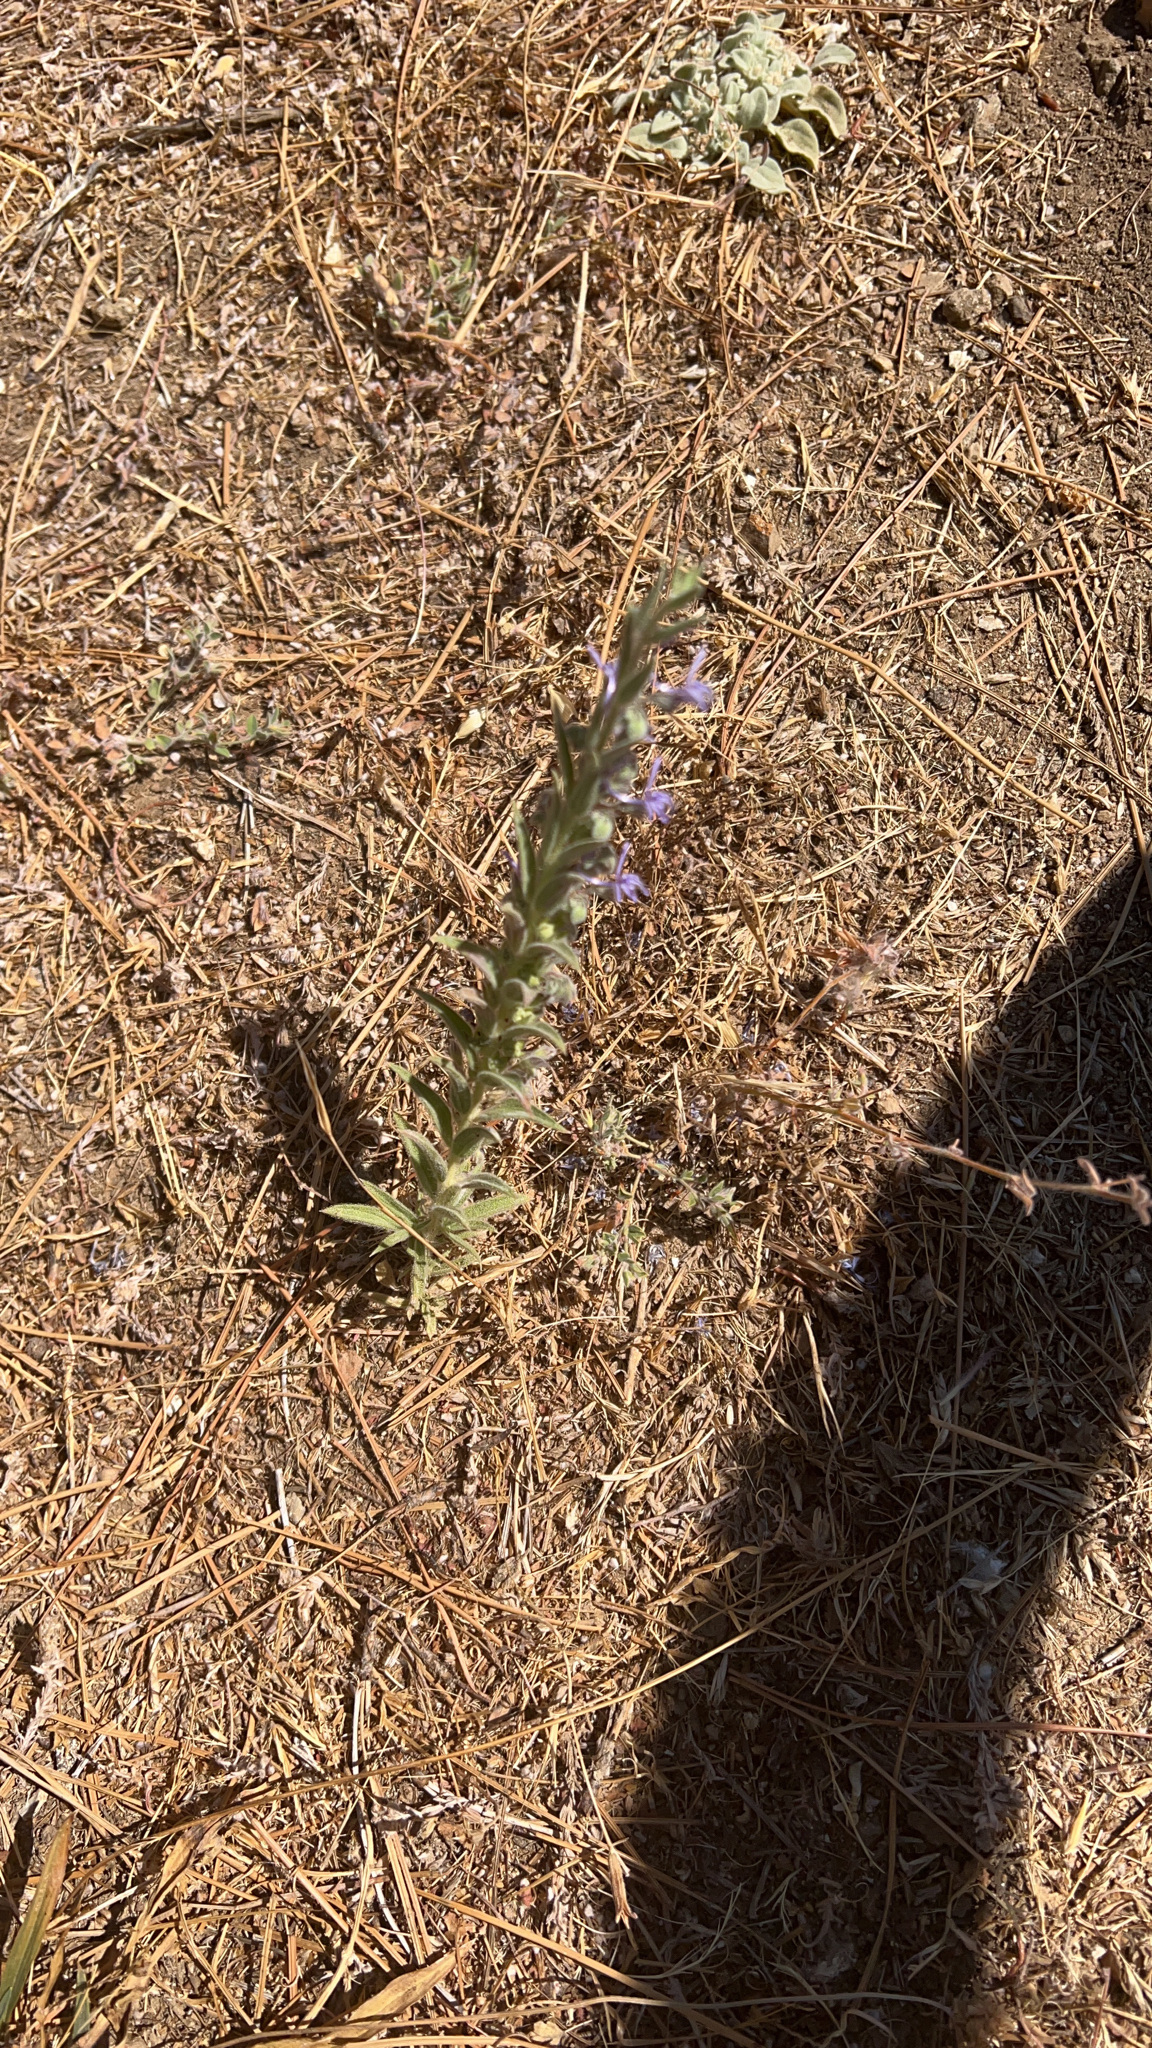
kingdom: Plantae
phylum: Tracheophyta
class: Magnoliopsida
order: Lamiales
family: Lamiaceae
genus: Trichostema
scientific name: Trichostema lanceolatum
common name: Vinegar-weed
